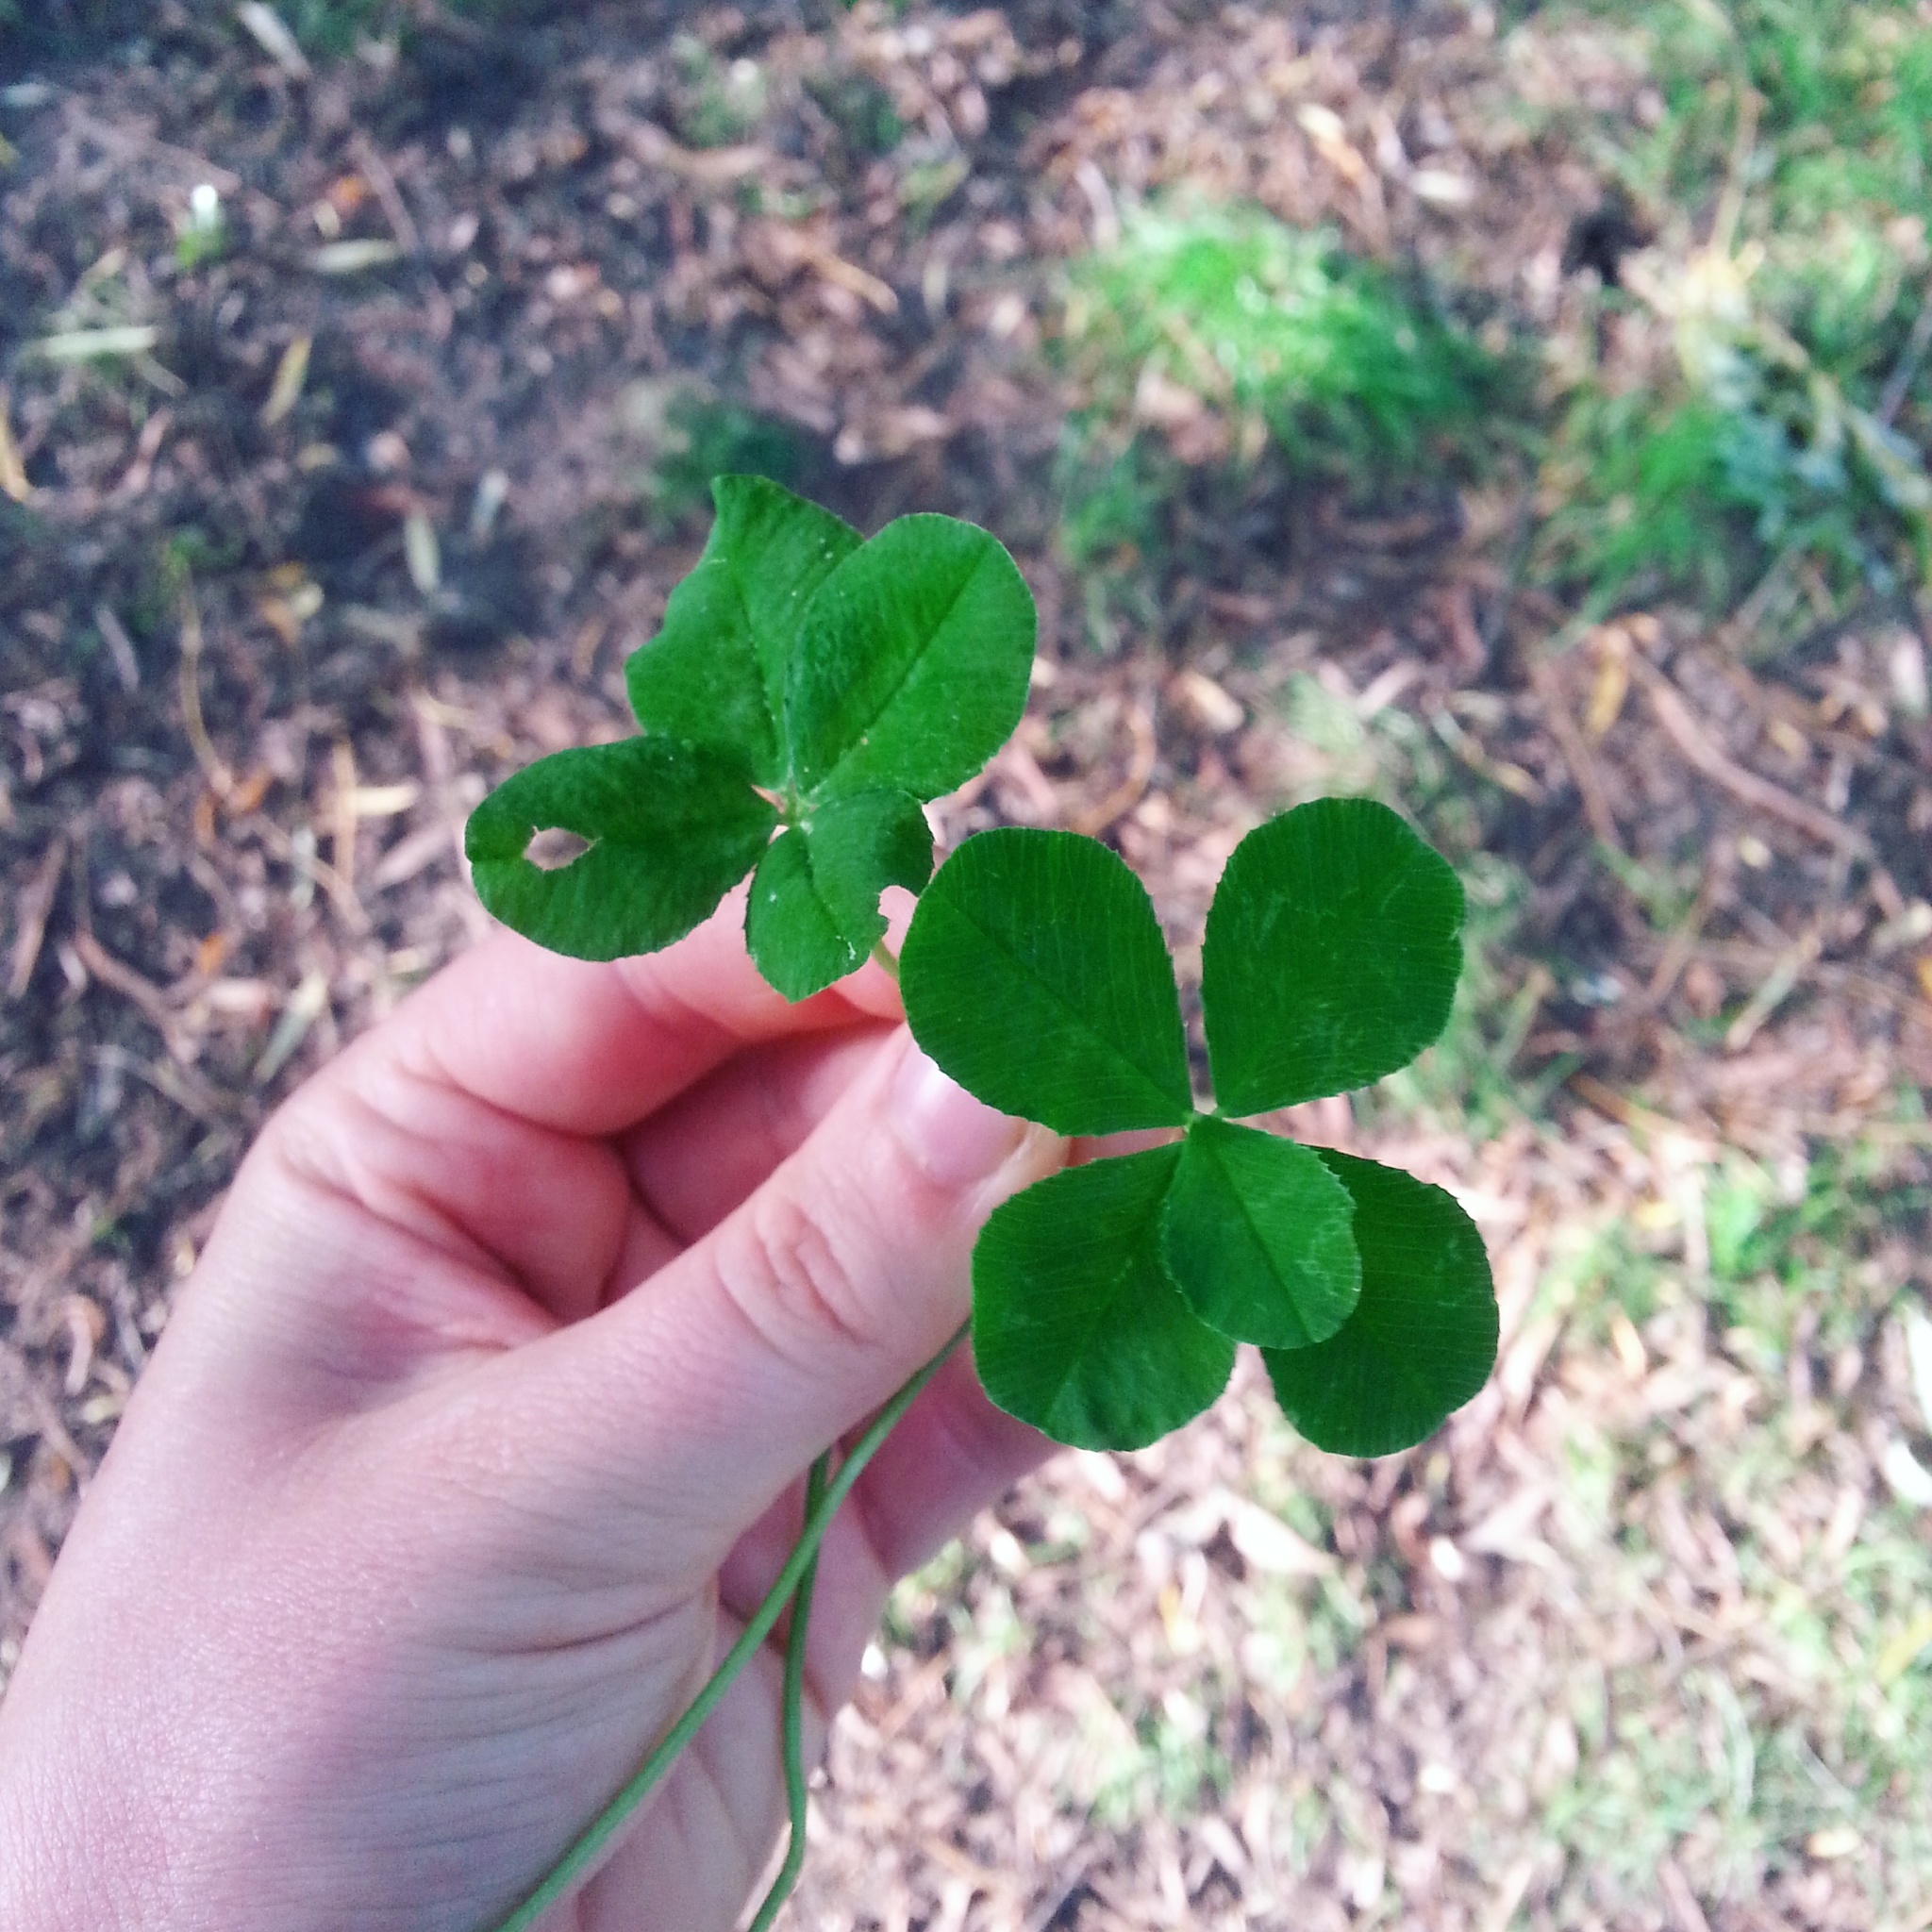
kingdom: Plantae
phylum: Tracheophyta
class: Magnoliopsida
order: Fabales
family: Fabaceae
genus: Trifolium
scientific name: Trifolium repens
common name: White clover
